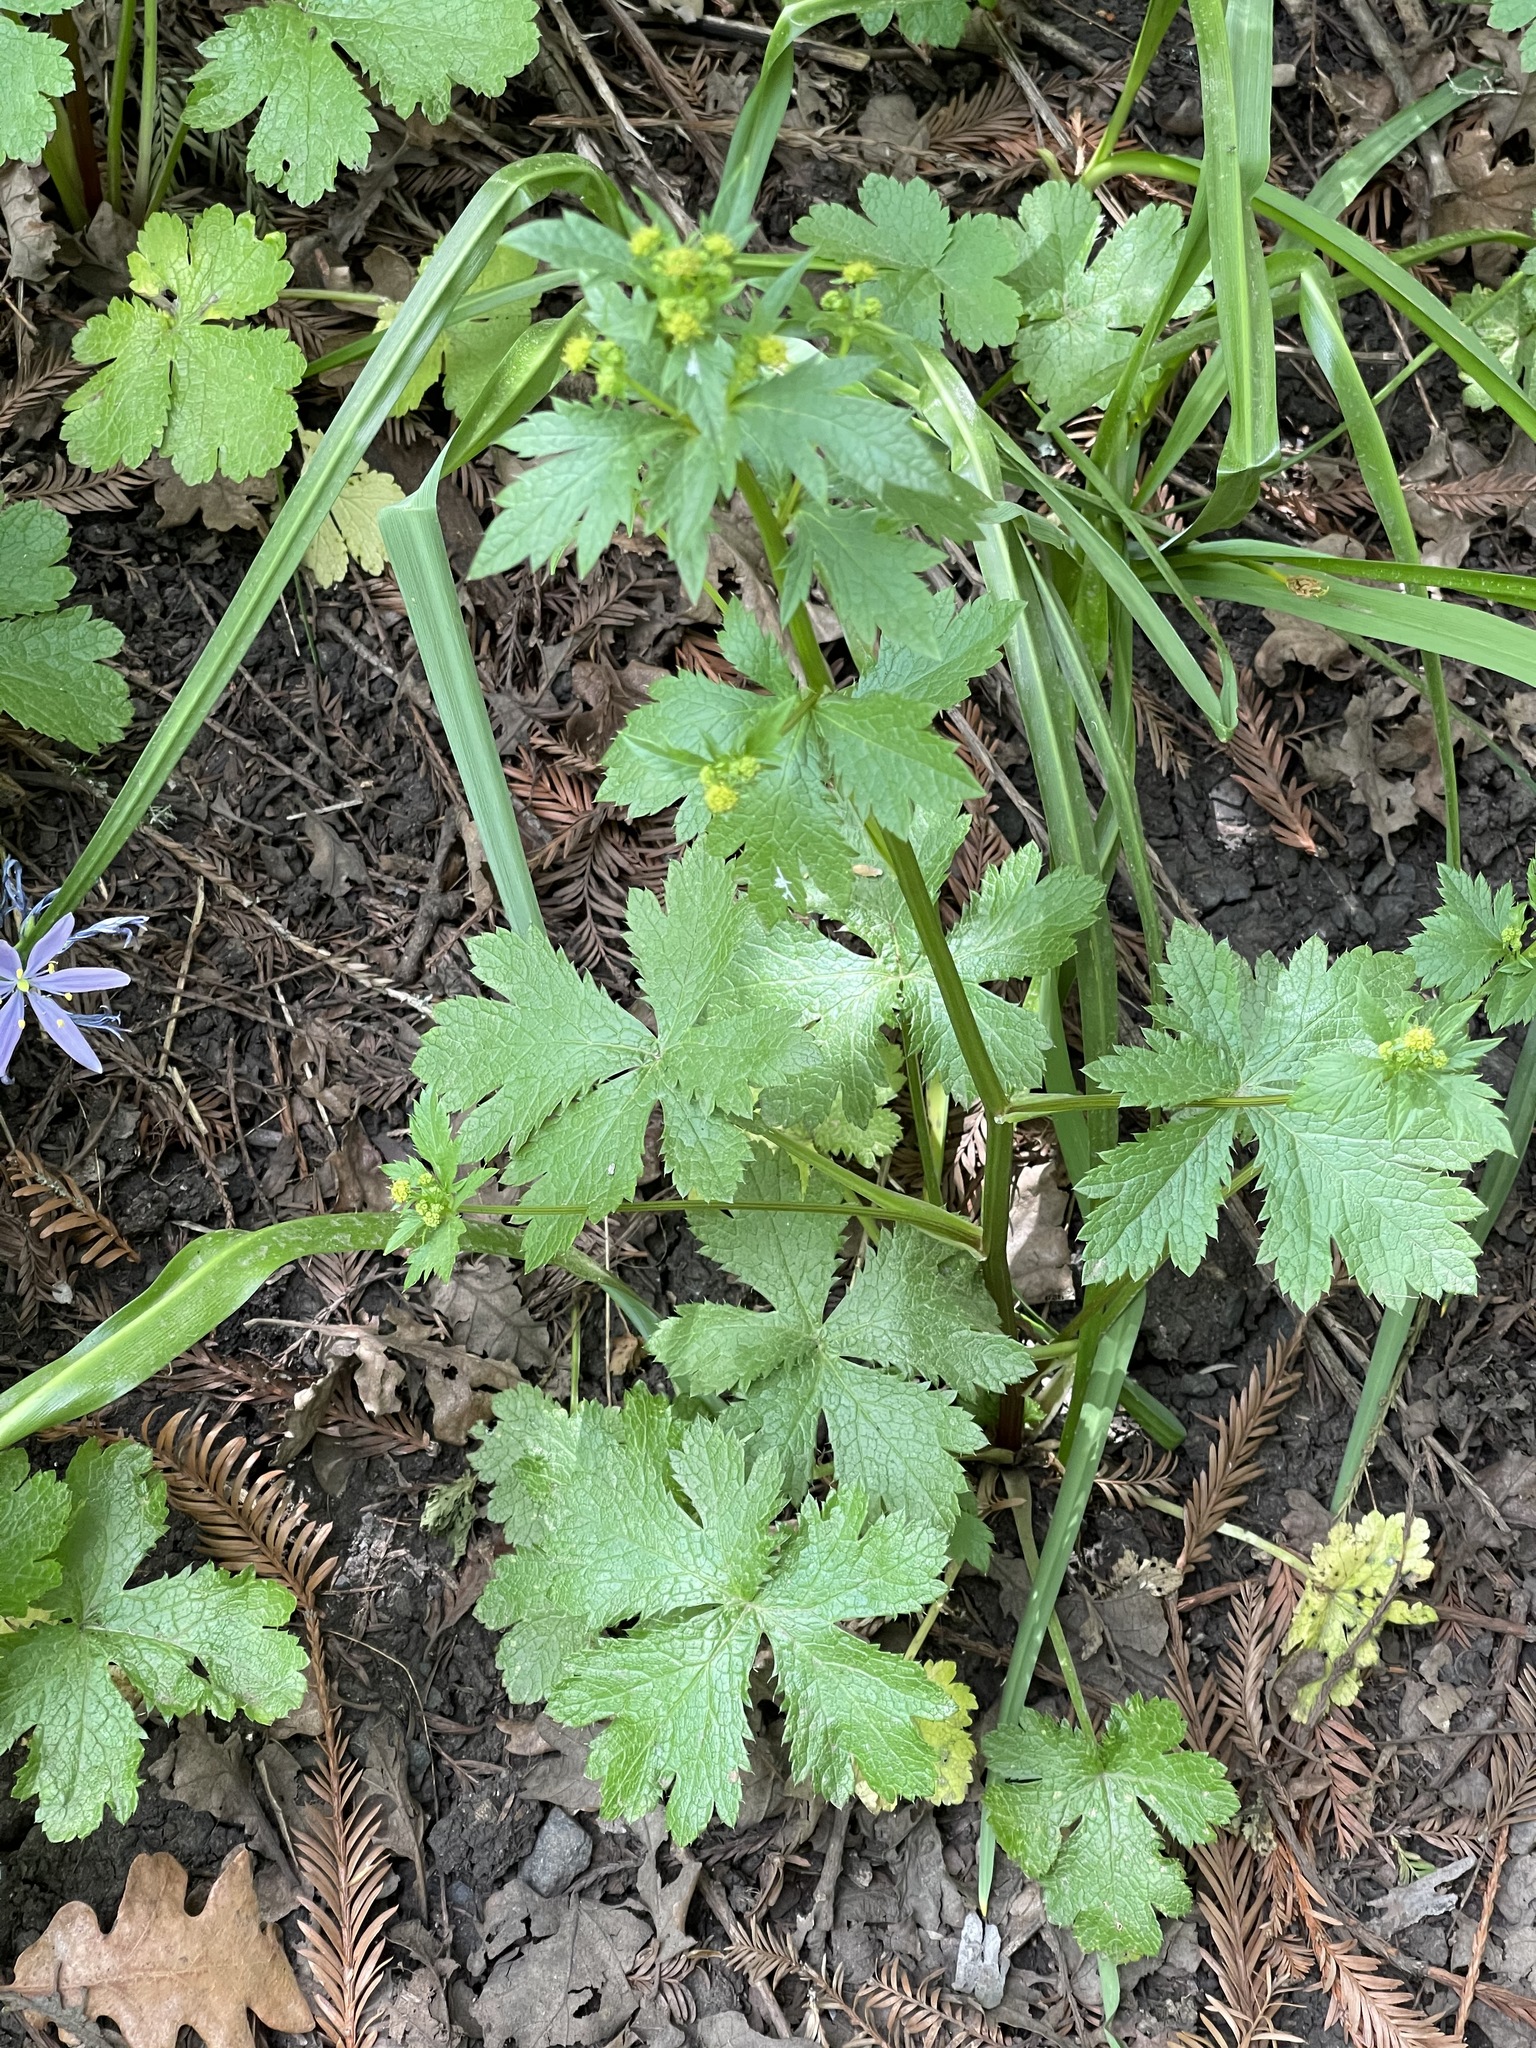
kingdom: Plantae
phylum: Tracheophyta
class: Magnoliopsida
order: Apiales
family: Apiaceae
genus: Sanicula
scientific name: Sanicula crassicaulis
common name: Western snakeroot
